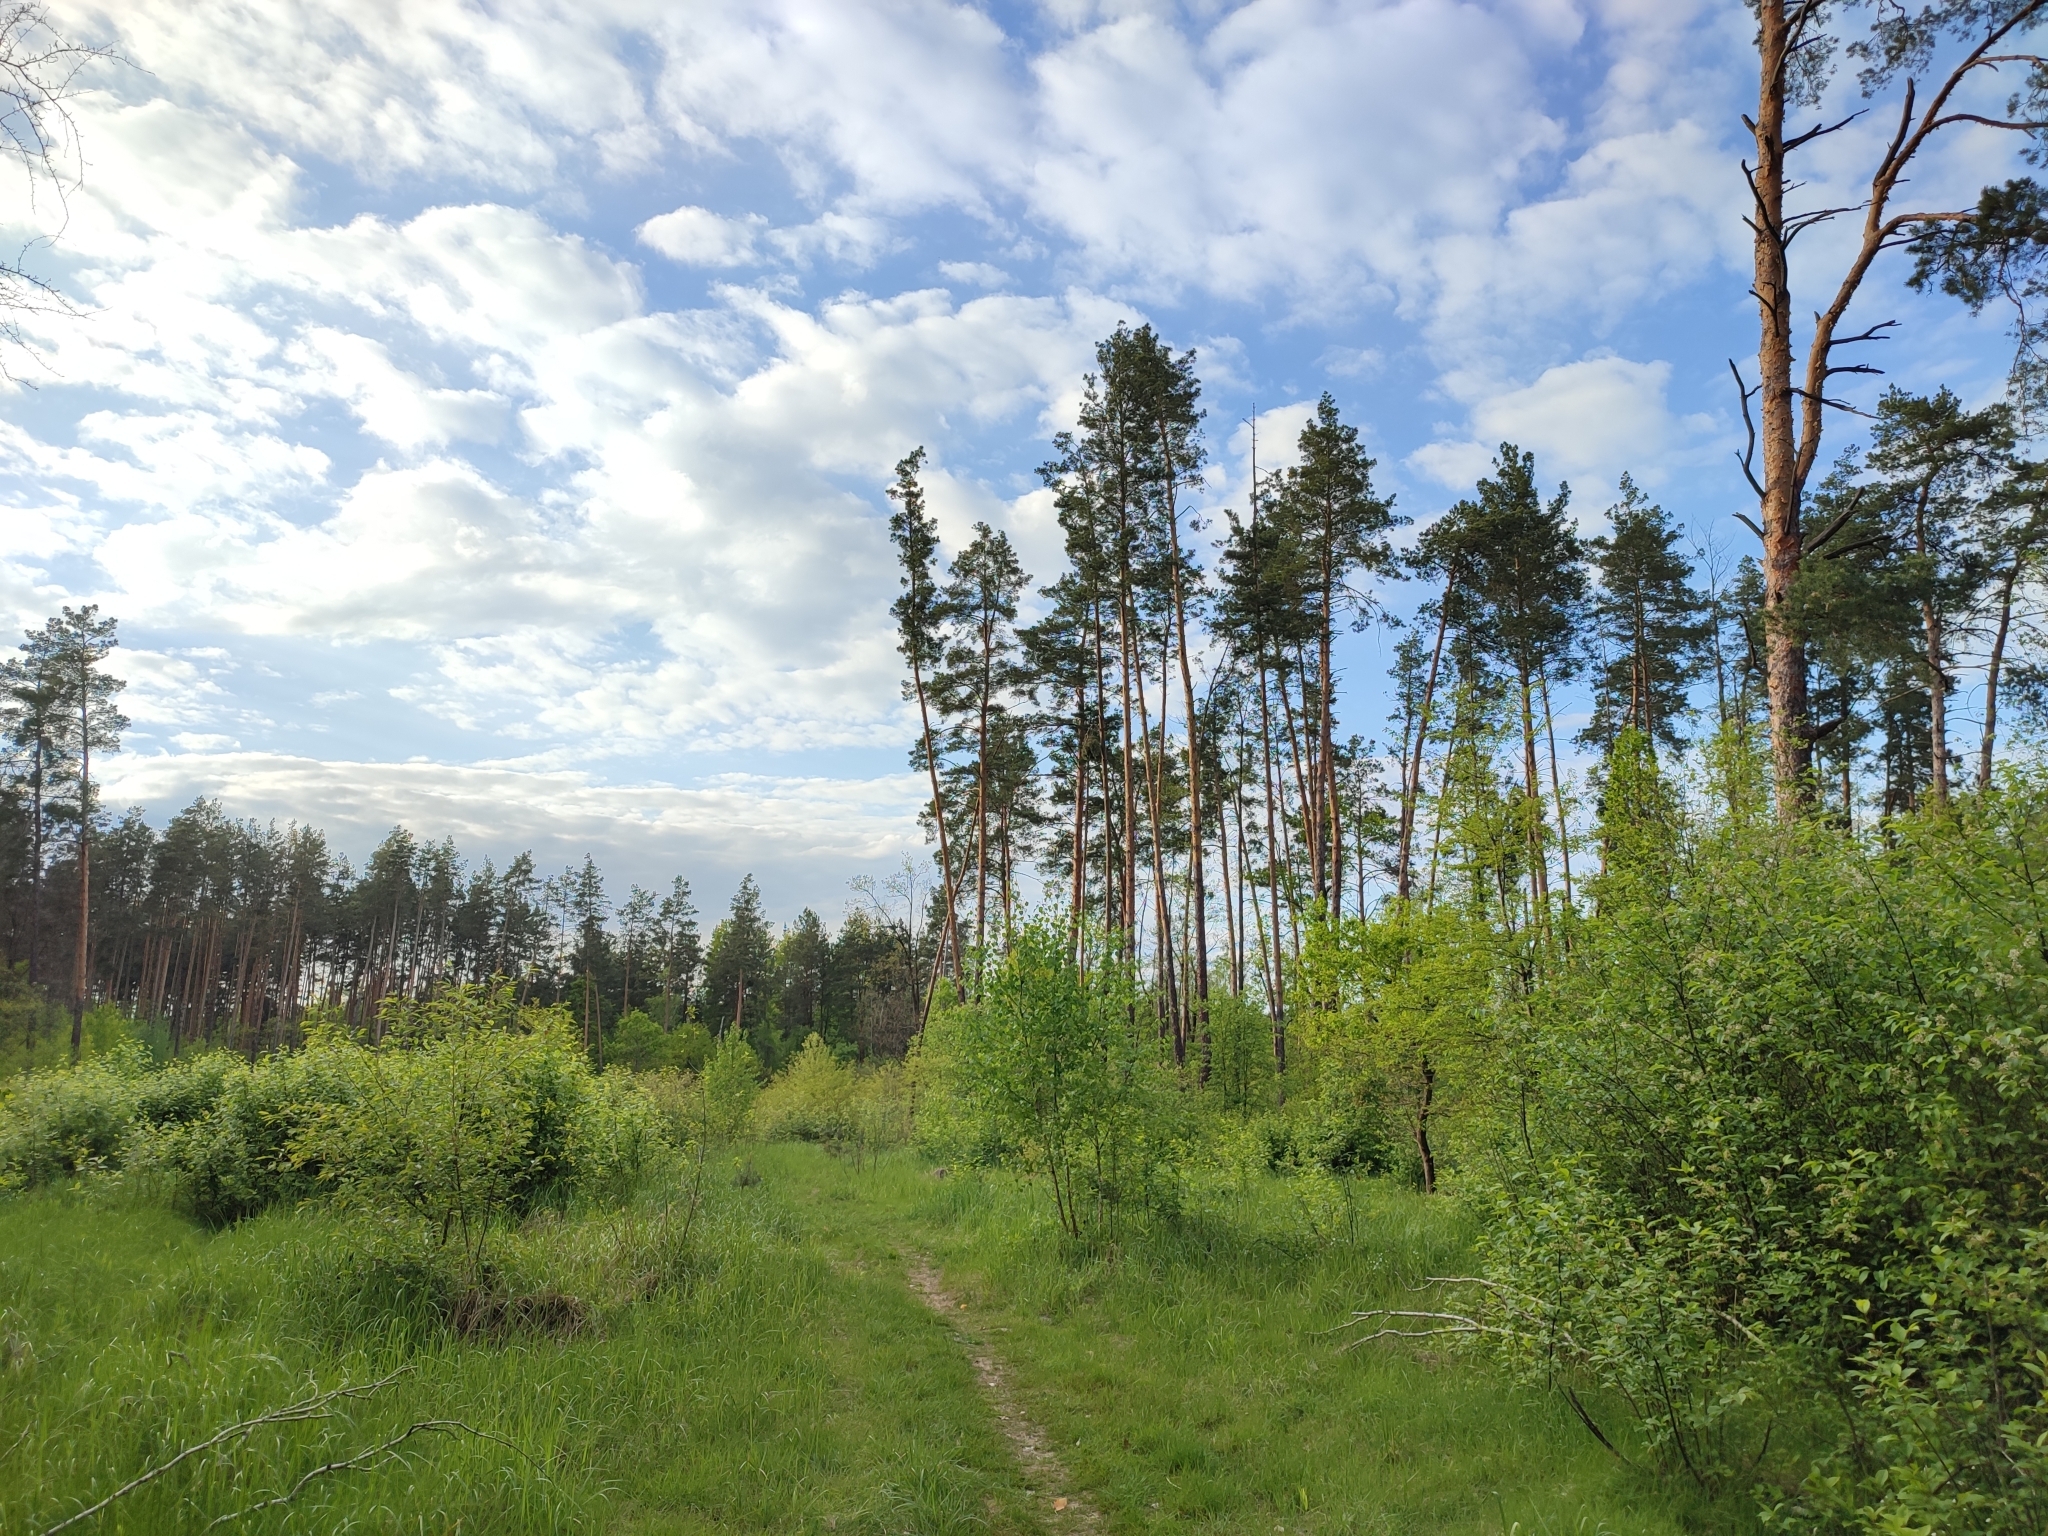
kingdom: Plantae
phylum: Tracheophyta
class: Pinopsida
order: Pinales
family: Pinaceae
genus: Pinus
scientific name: Pinus sylvestris
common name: Scots pine
